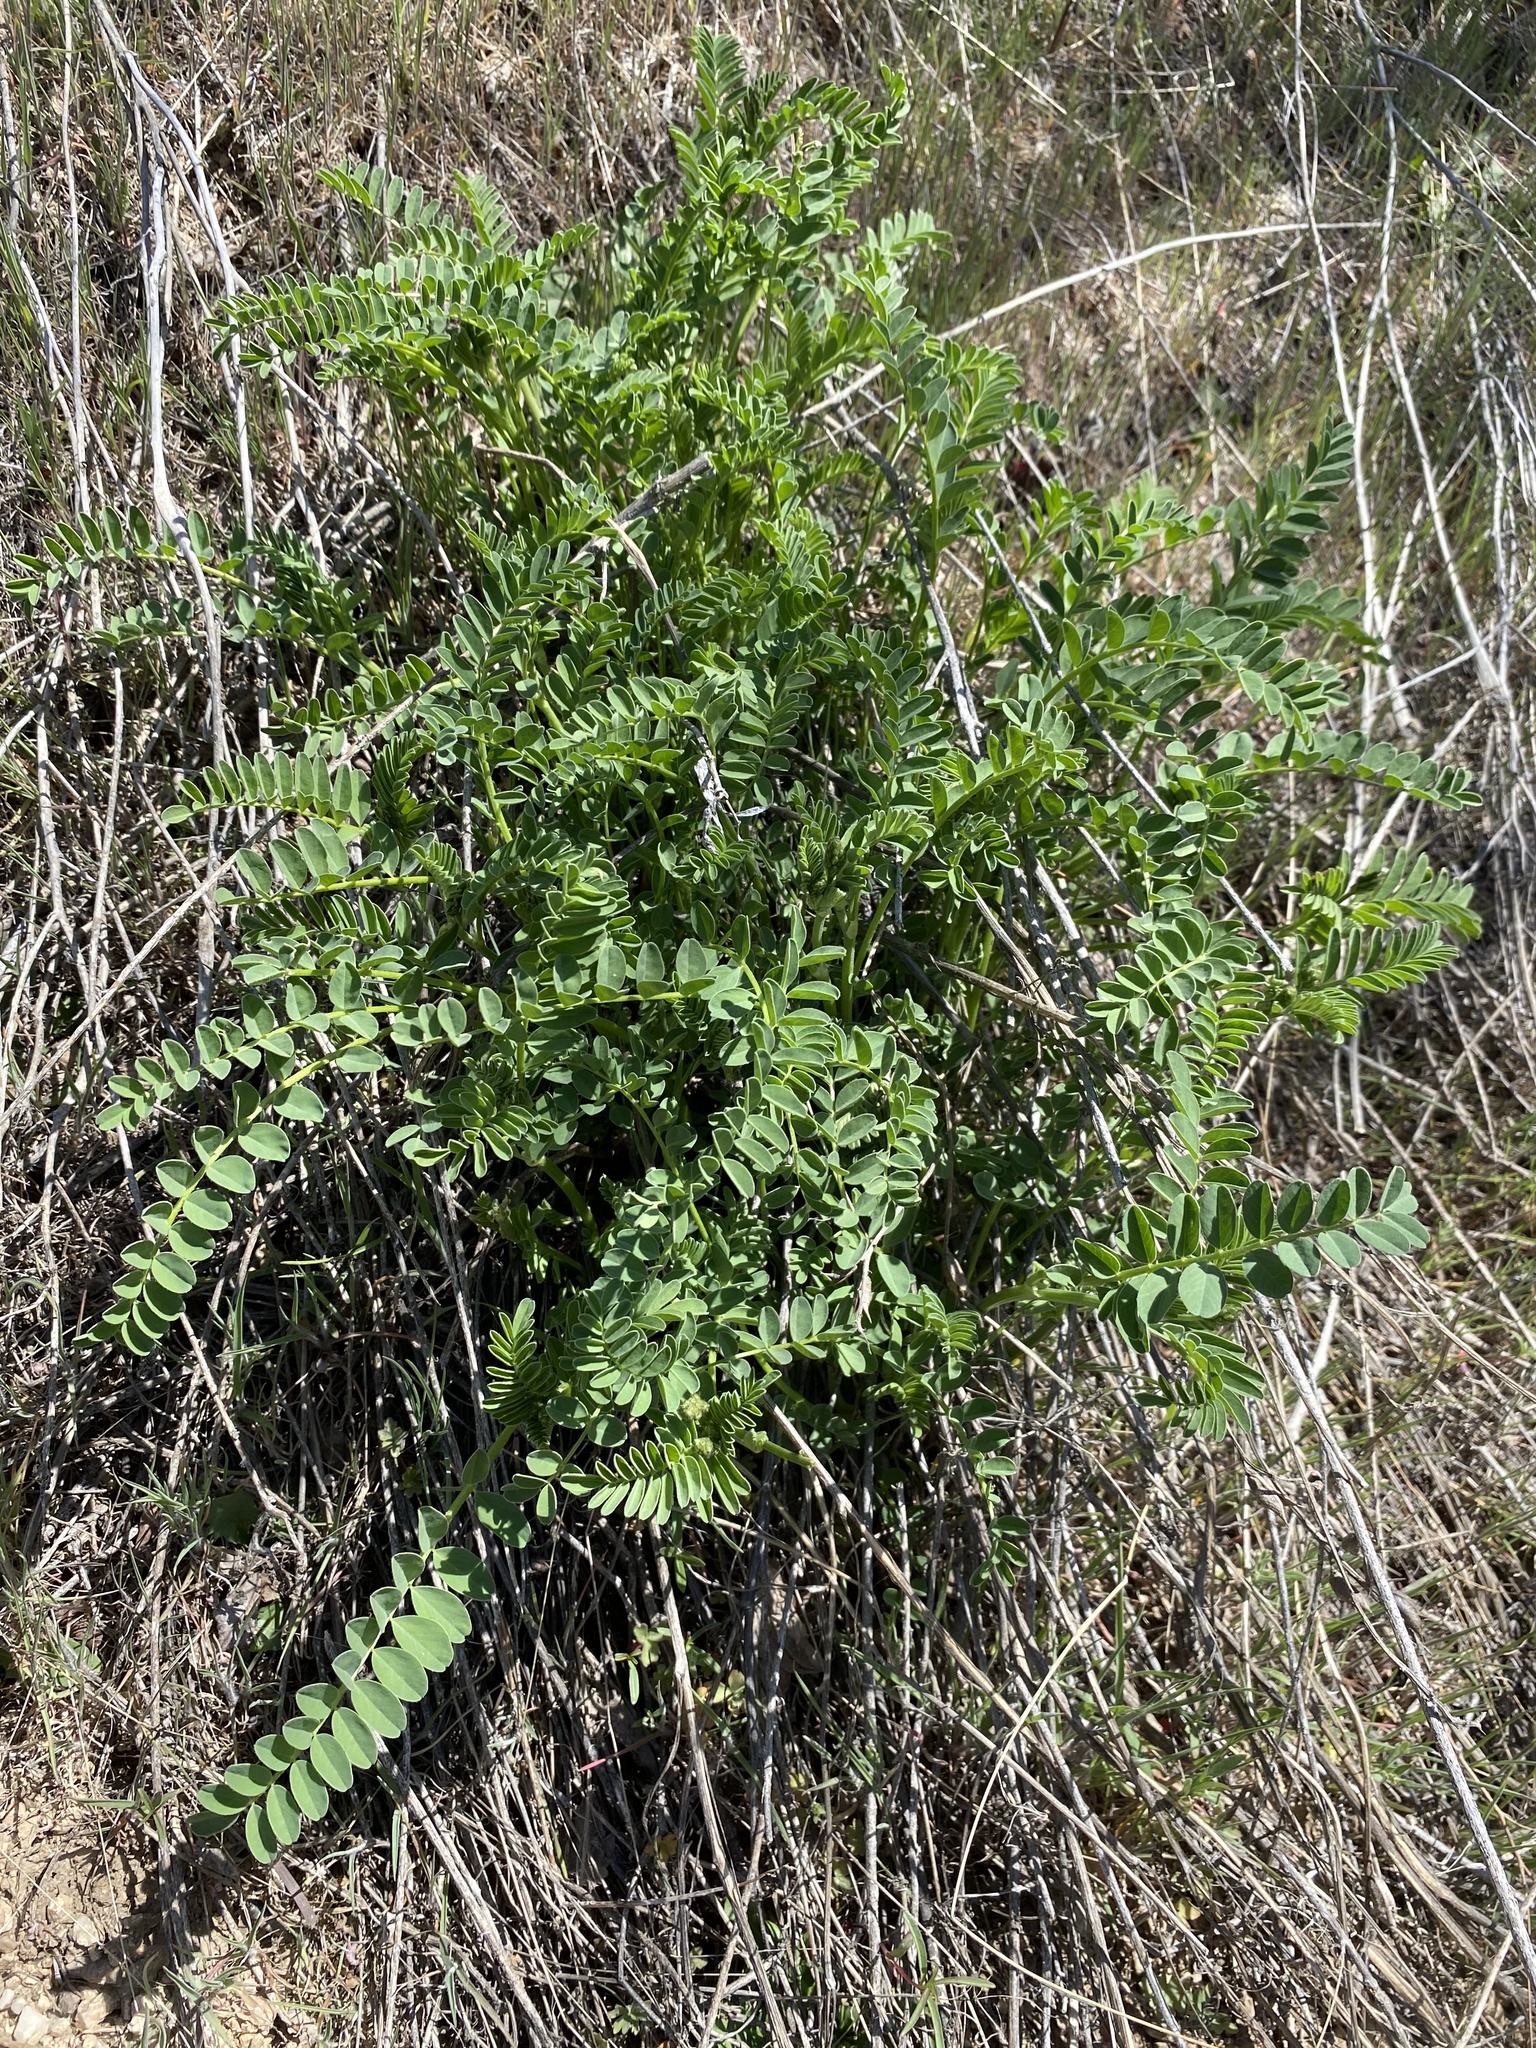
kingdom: Plantae
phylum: Tracheophyta
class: Magnoliopsida
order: Fabales
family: Fabaceae
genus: Astragalus
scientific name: Astragalus adanus
